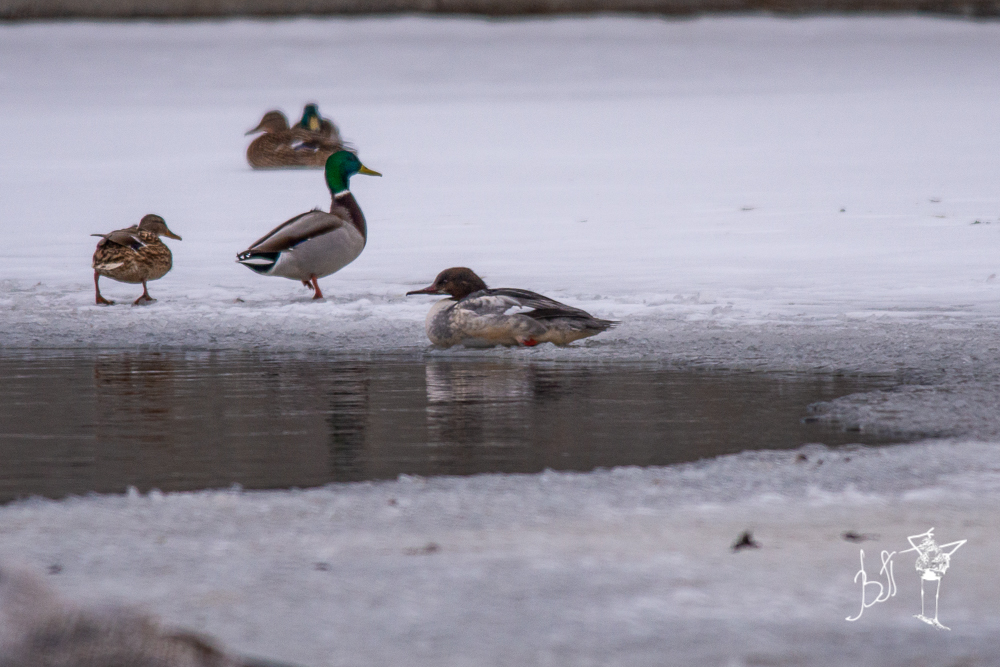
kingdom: Animalia
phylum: Chordata
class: Aves
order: Anseriformes
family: Anatidae
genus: Mergus
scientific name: Mergus merganser
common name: Common merganser
